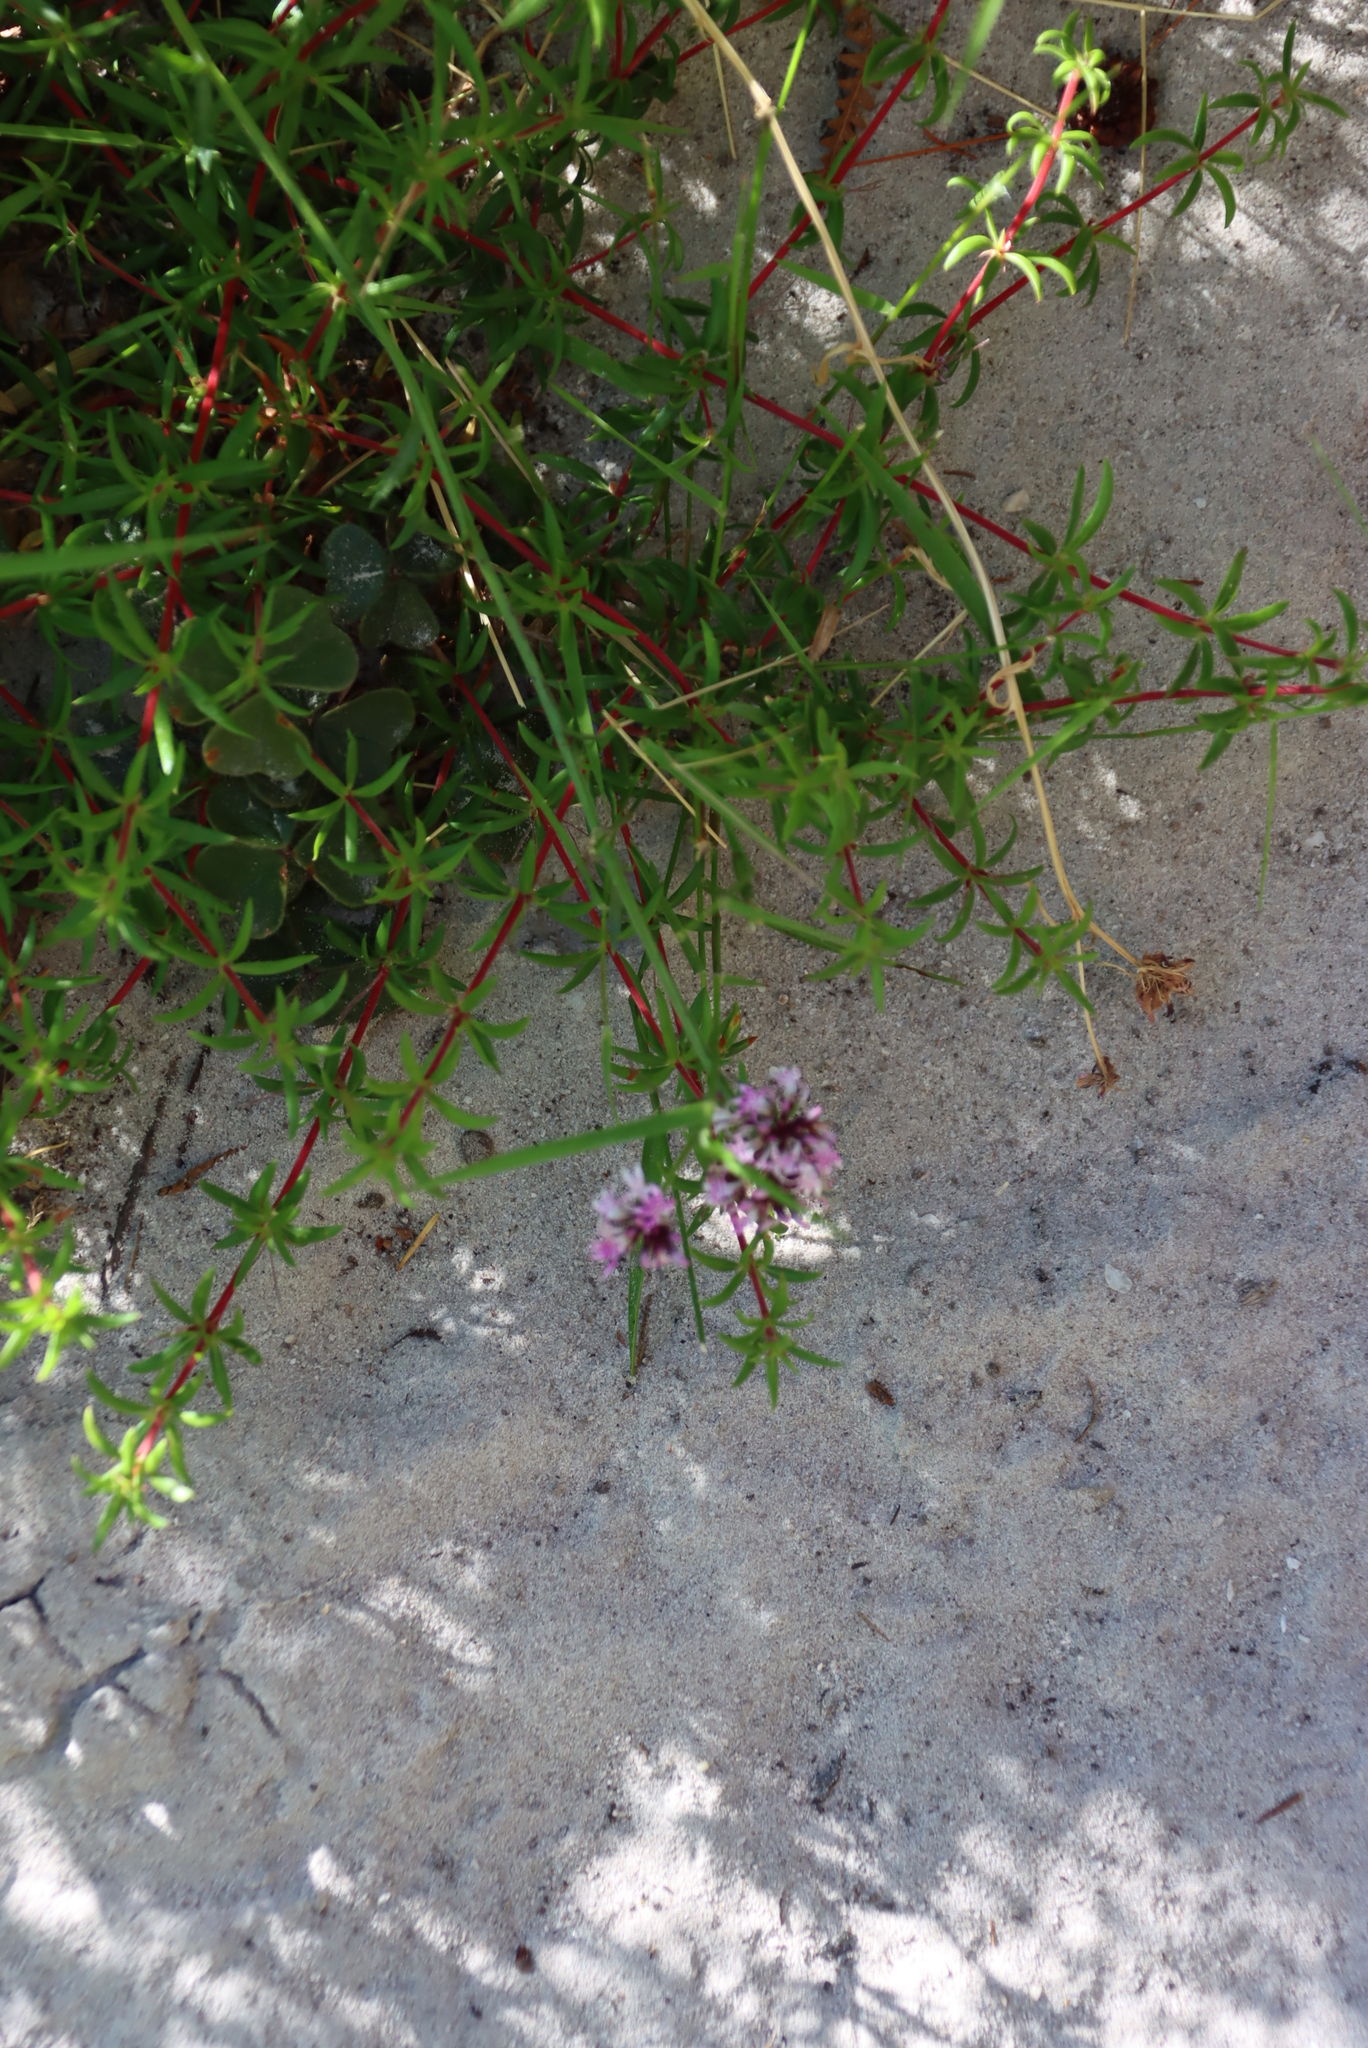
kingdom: Plantae
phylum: Tracheophyta
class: Magnoliopsida
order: Asterales
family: Campanulaceae
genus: Lobelia
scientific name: Lobelia jasionoides
